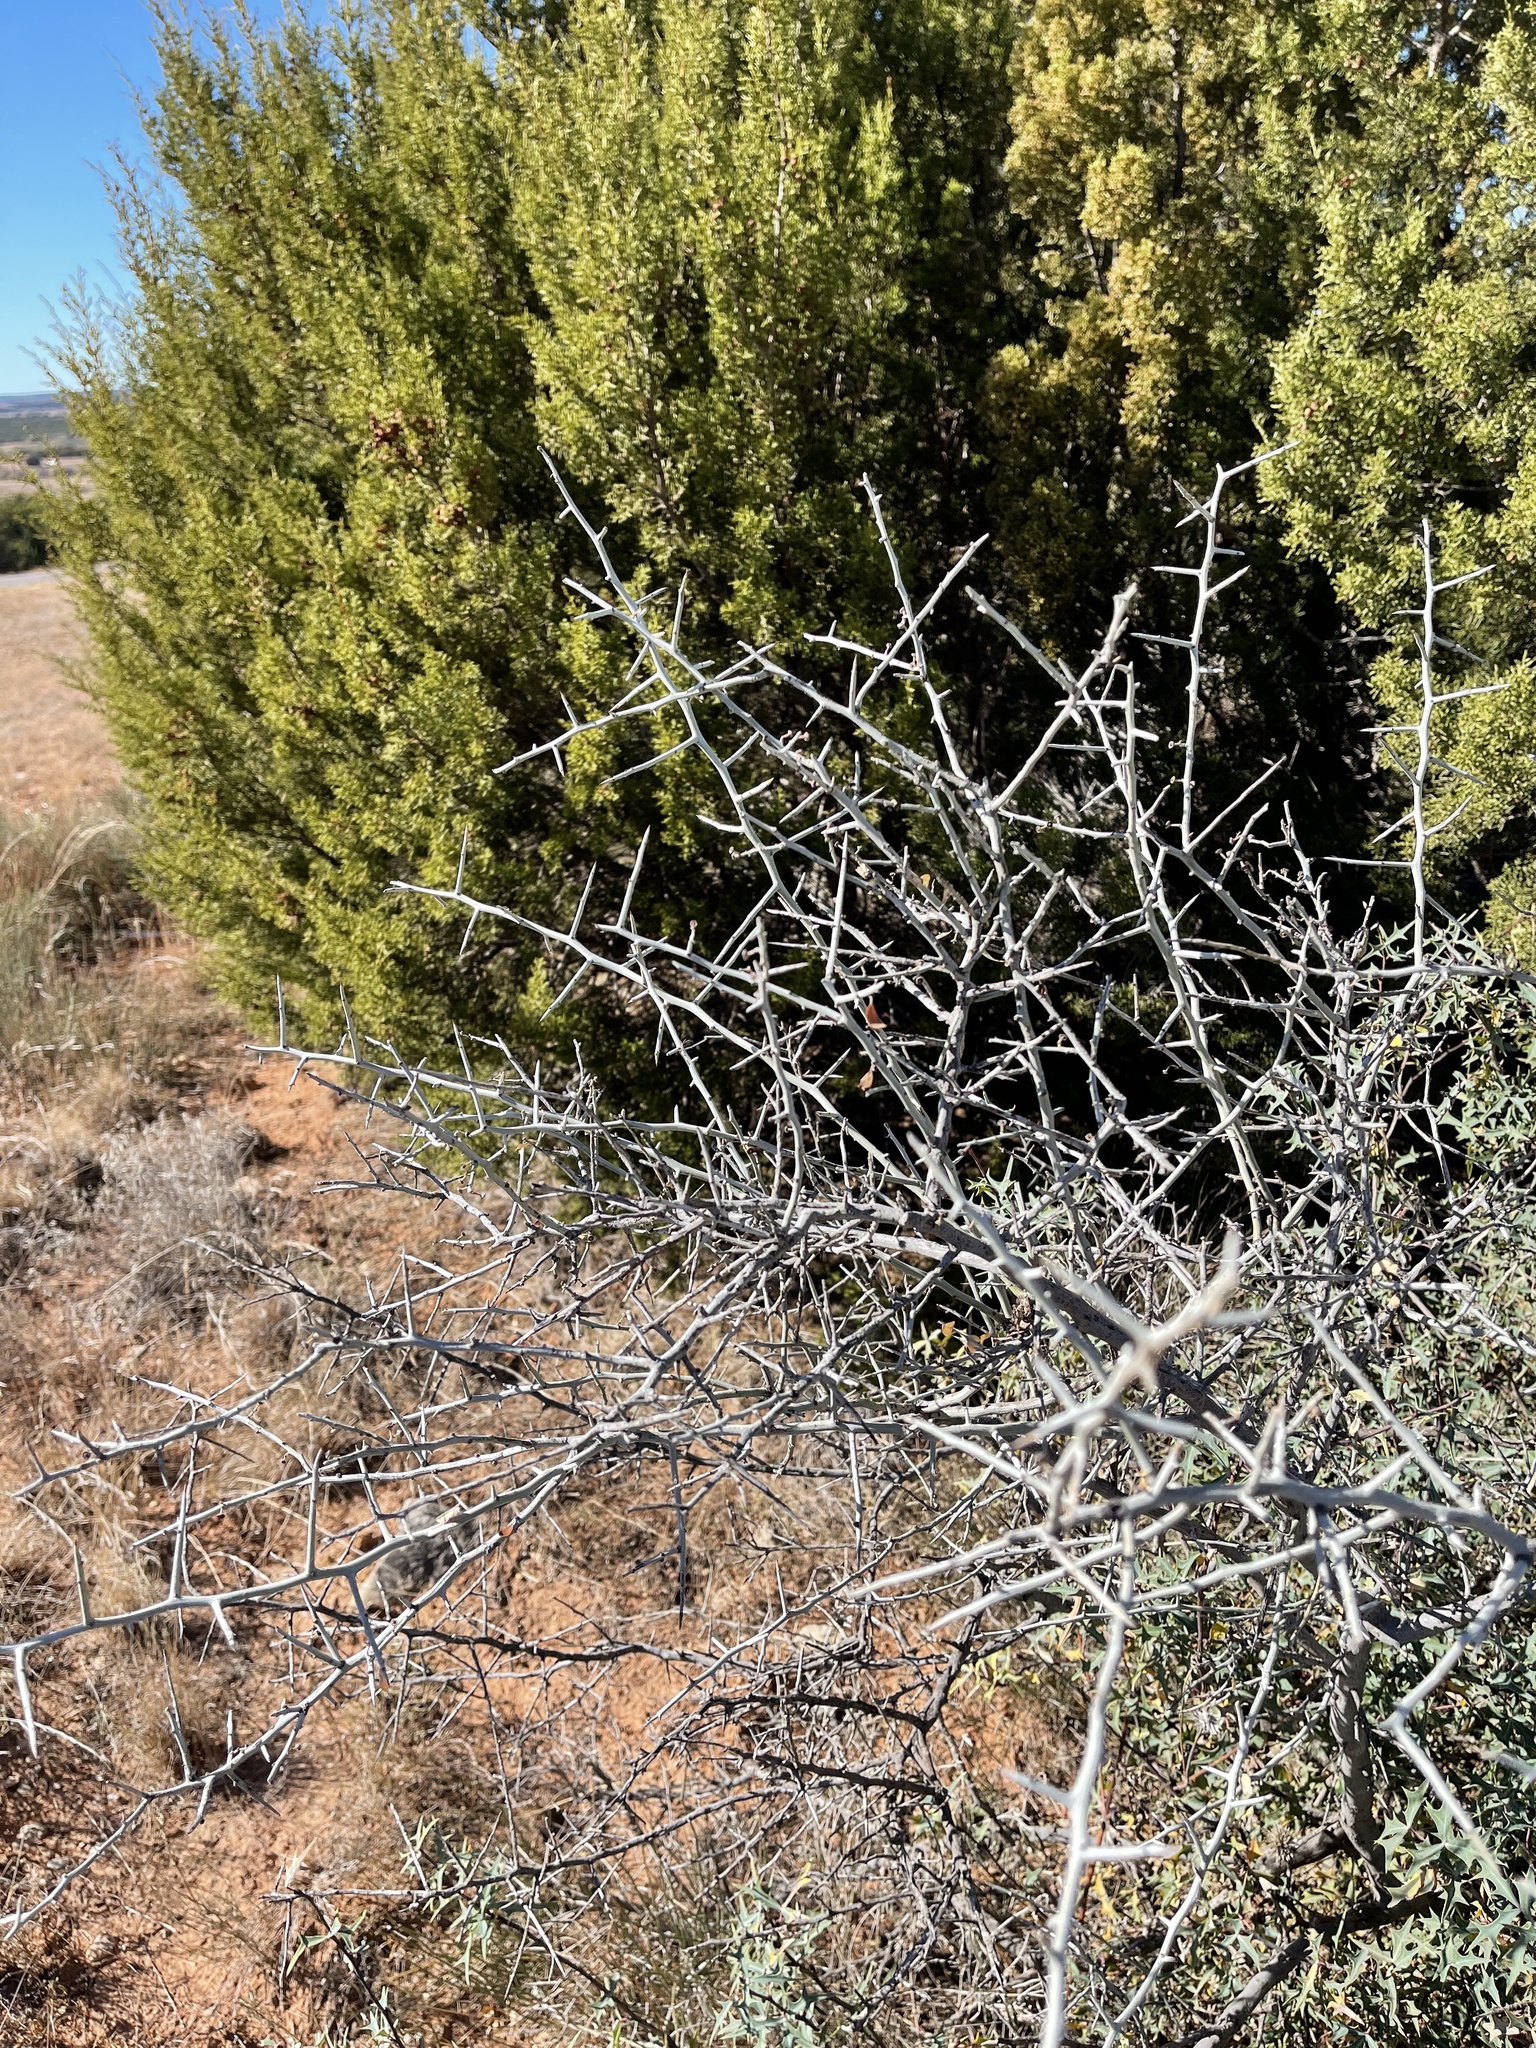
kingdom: Plantae
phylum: Tracheophyta
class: Magnoliopsida
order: Rosales
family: Rhamnaceae
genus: Sarcomphalus
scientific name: Sarcomphalus obtusifolius
